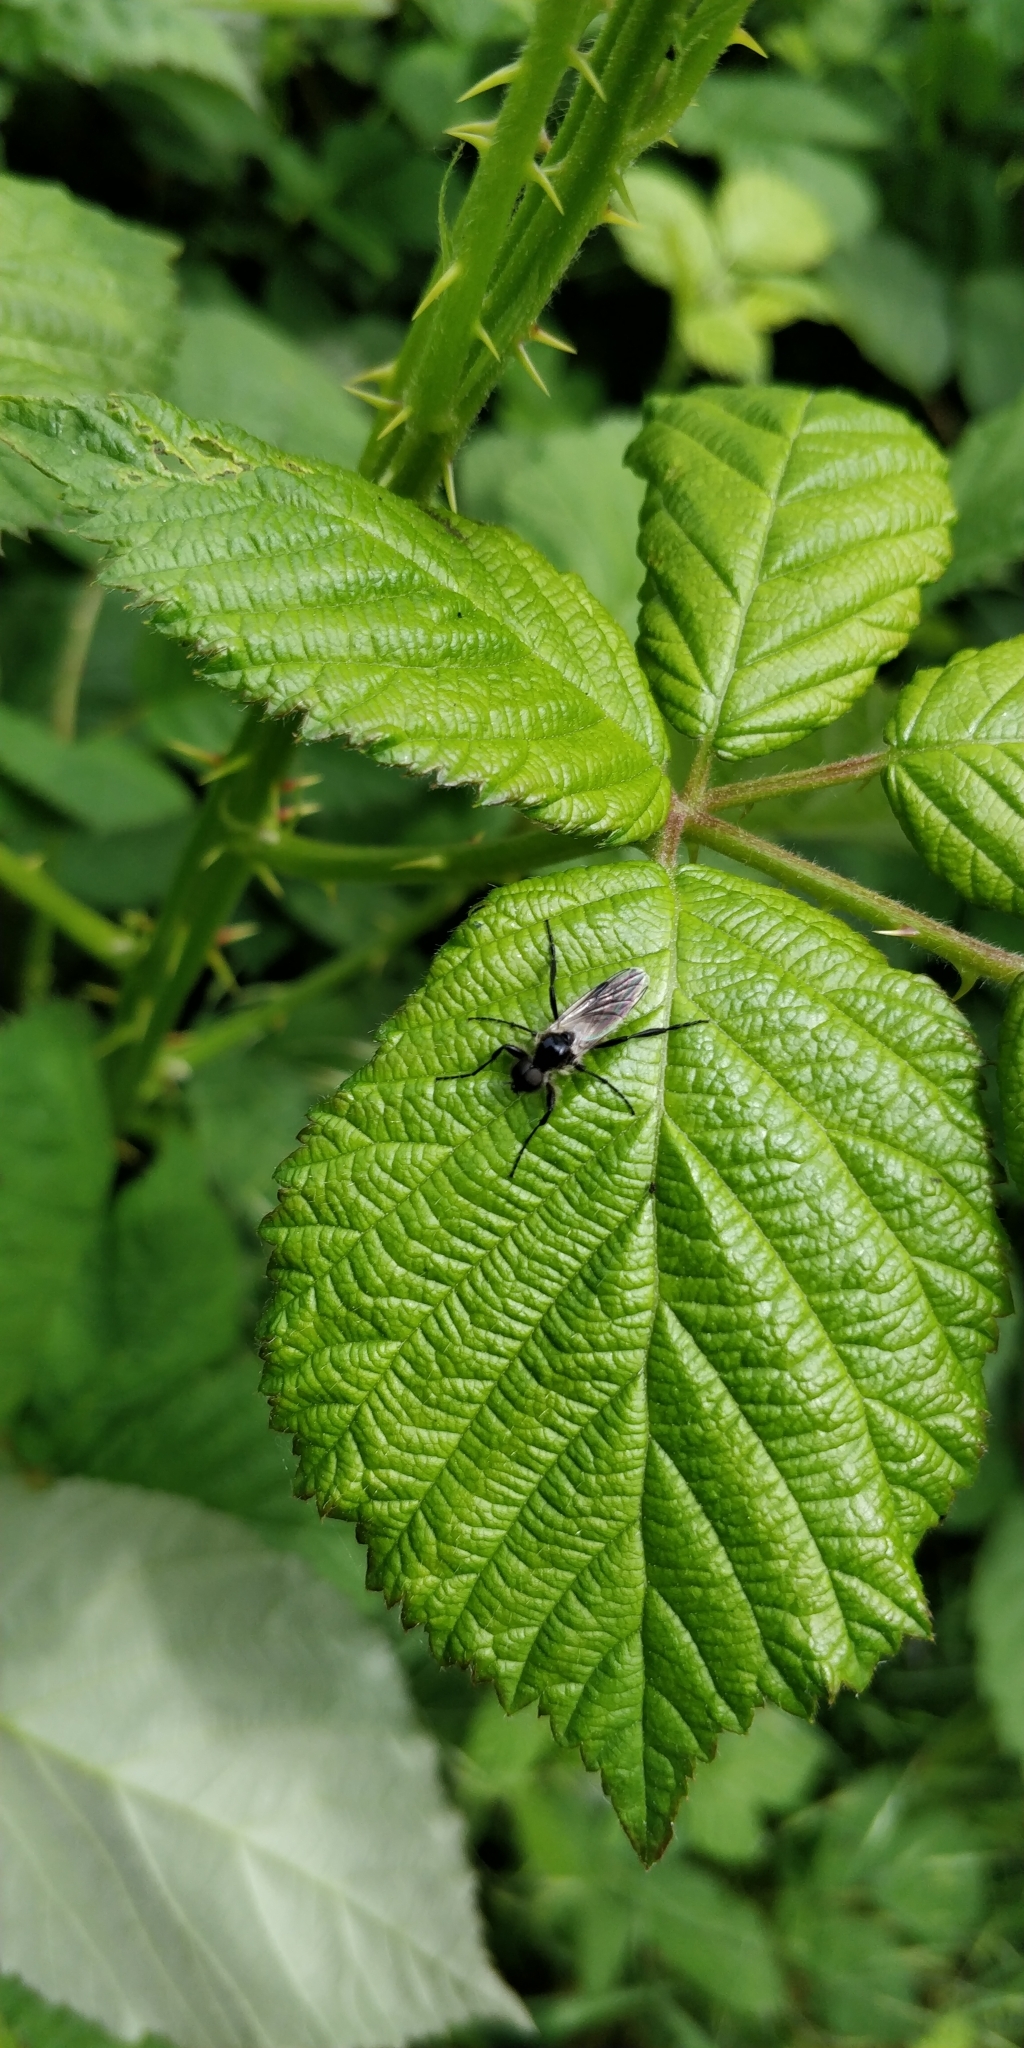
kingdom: Animalia
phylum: Arthropoda
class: Insecta
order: Diptera
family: Bibionidae
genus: Bibio
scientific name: Bibio albipennis
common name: White-winged march fly
